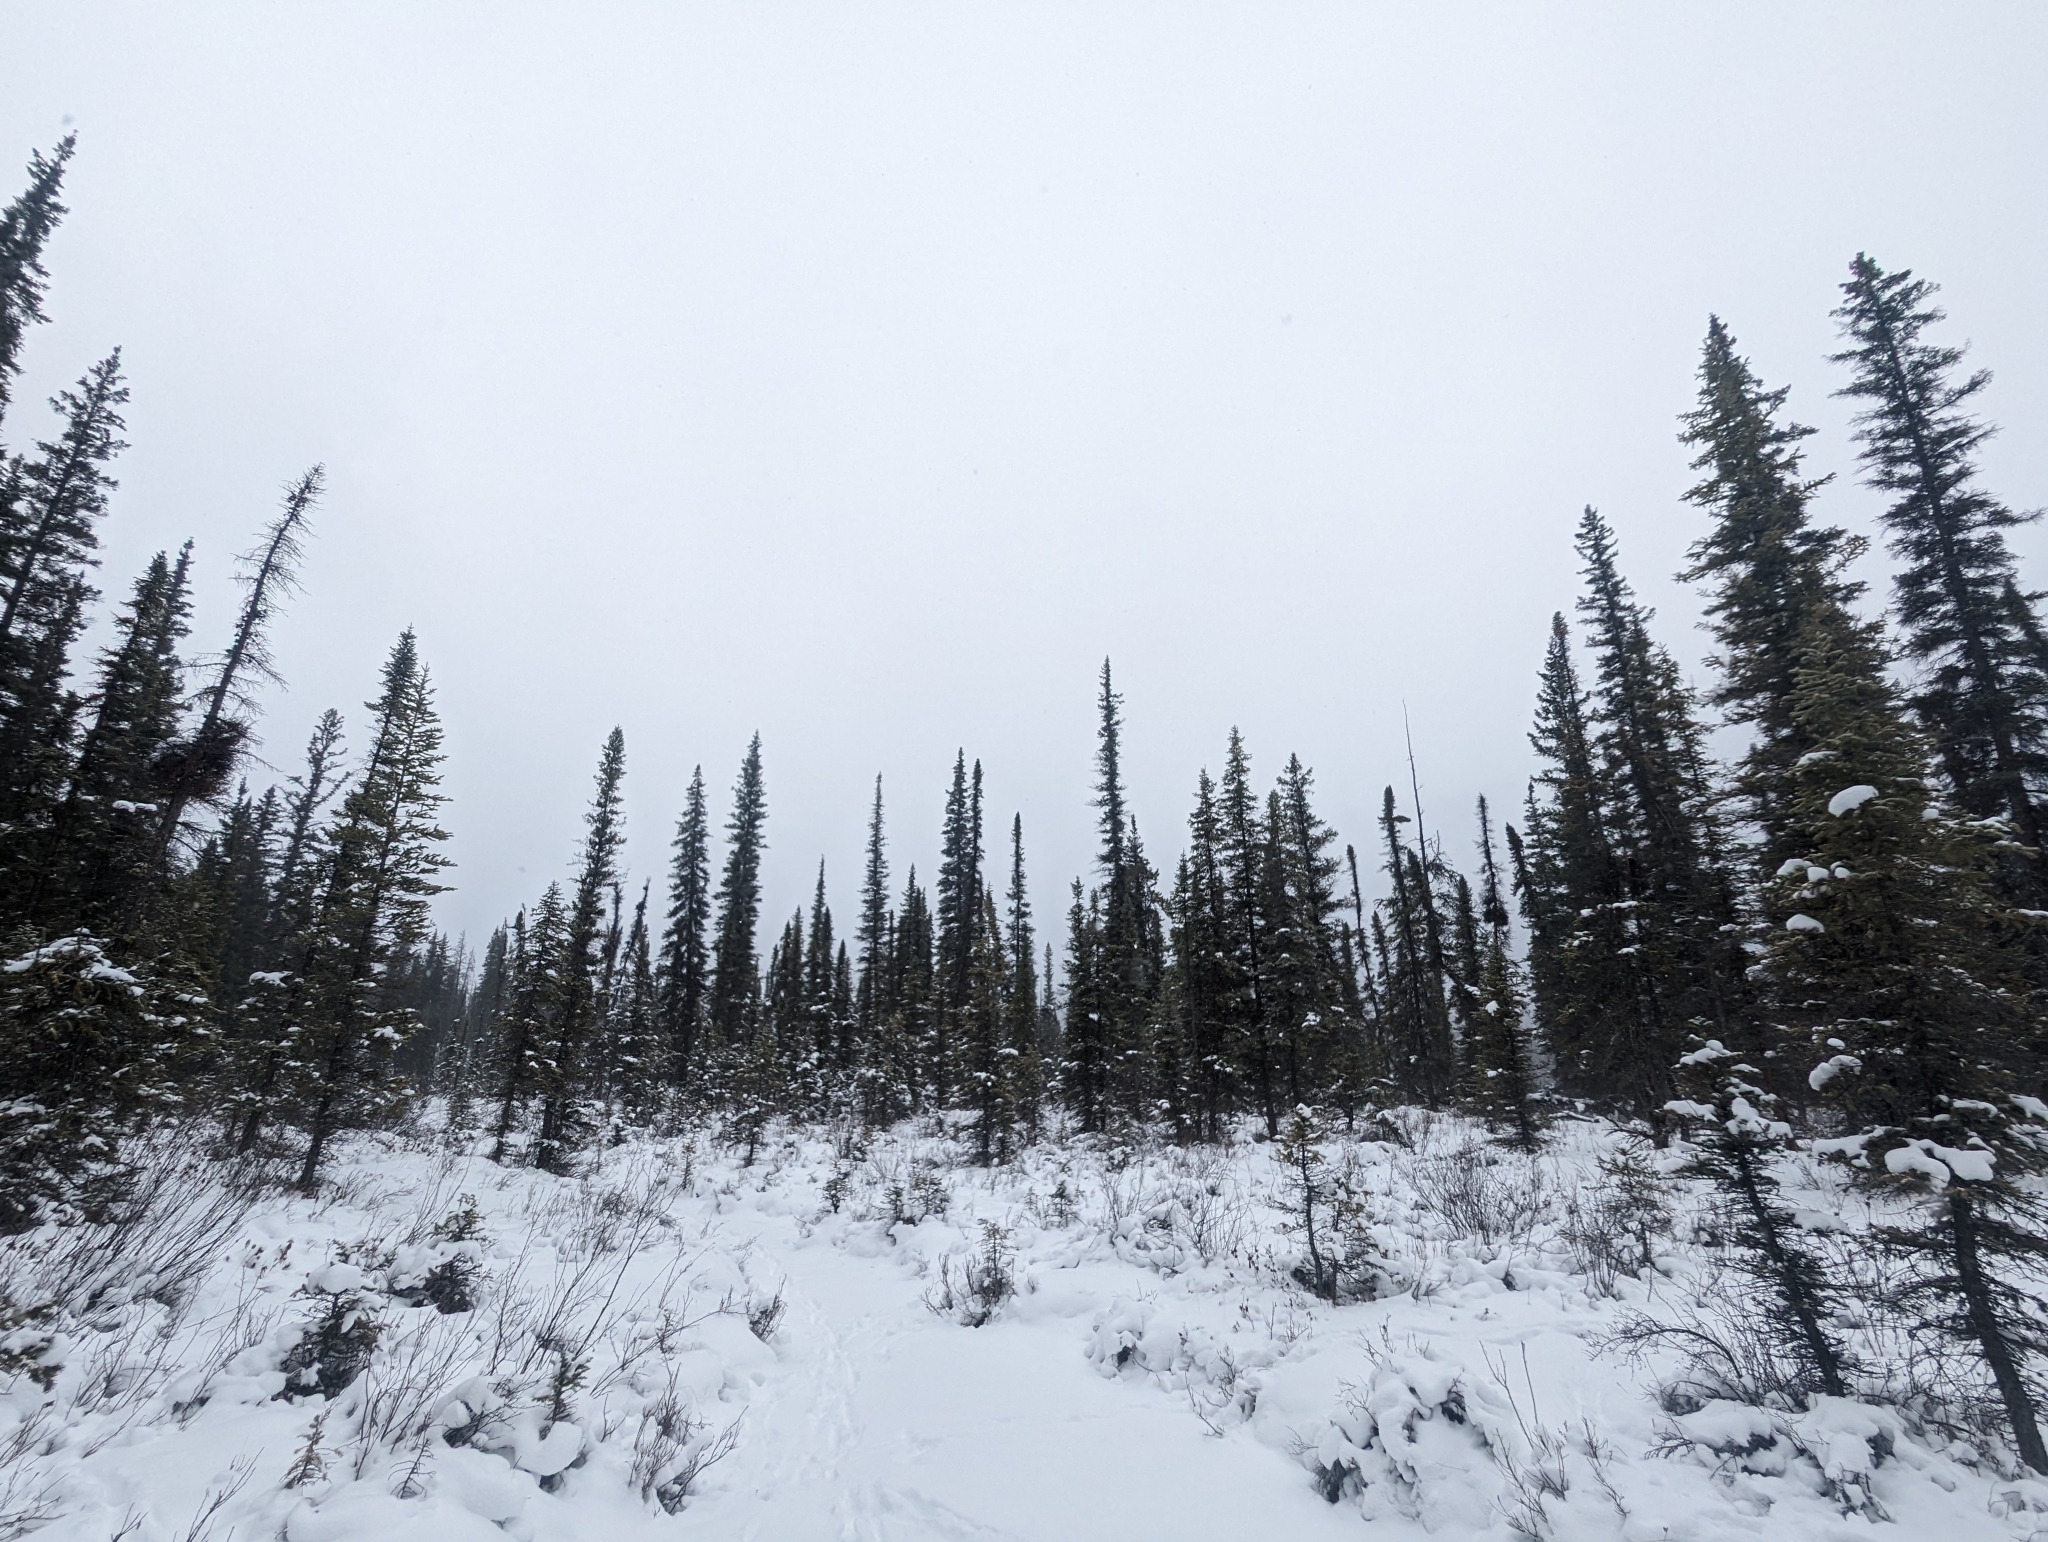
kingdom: Plantae
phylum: Tracheophyta
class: Pinopsida
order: Pinales
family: Pinaceae
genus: Picea
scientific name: Picea mariana
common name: Black spruce
